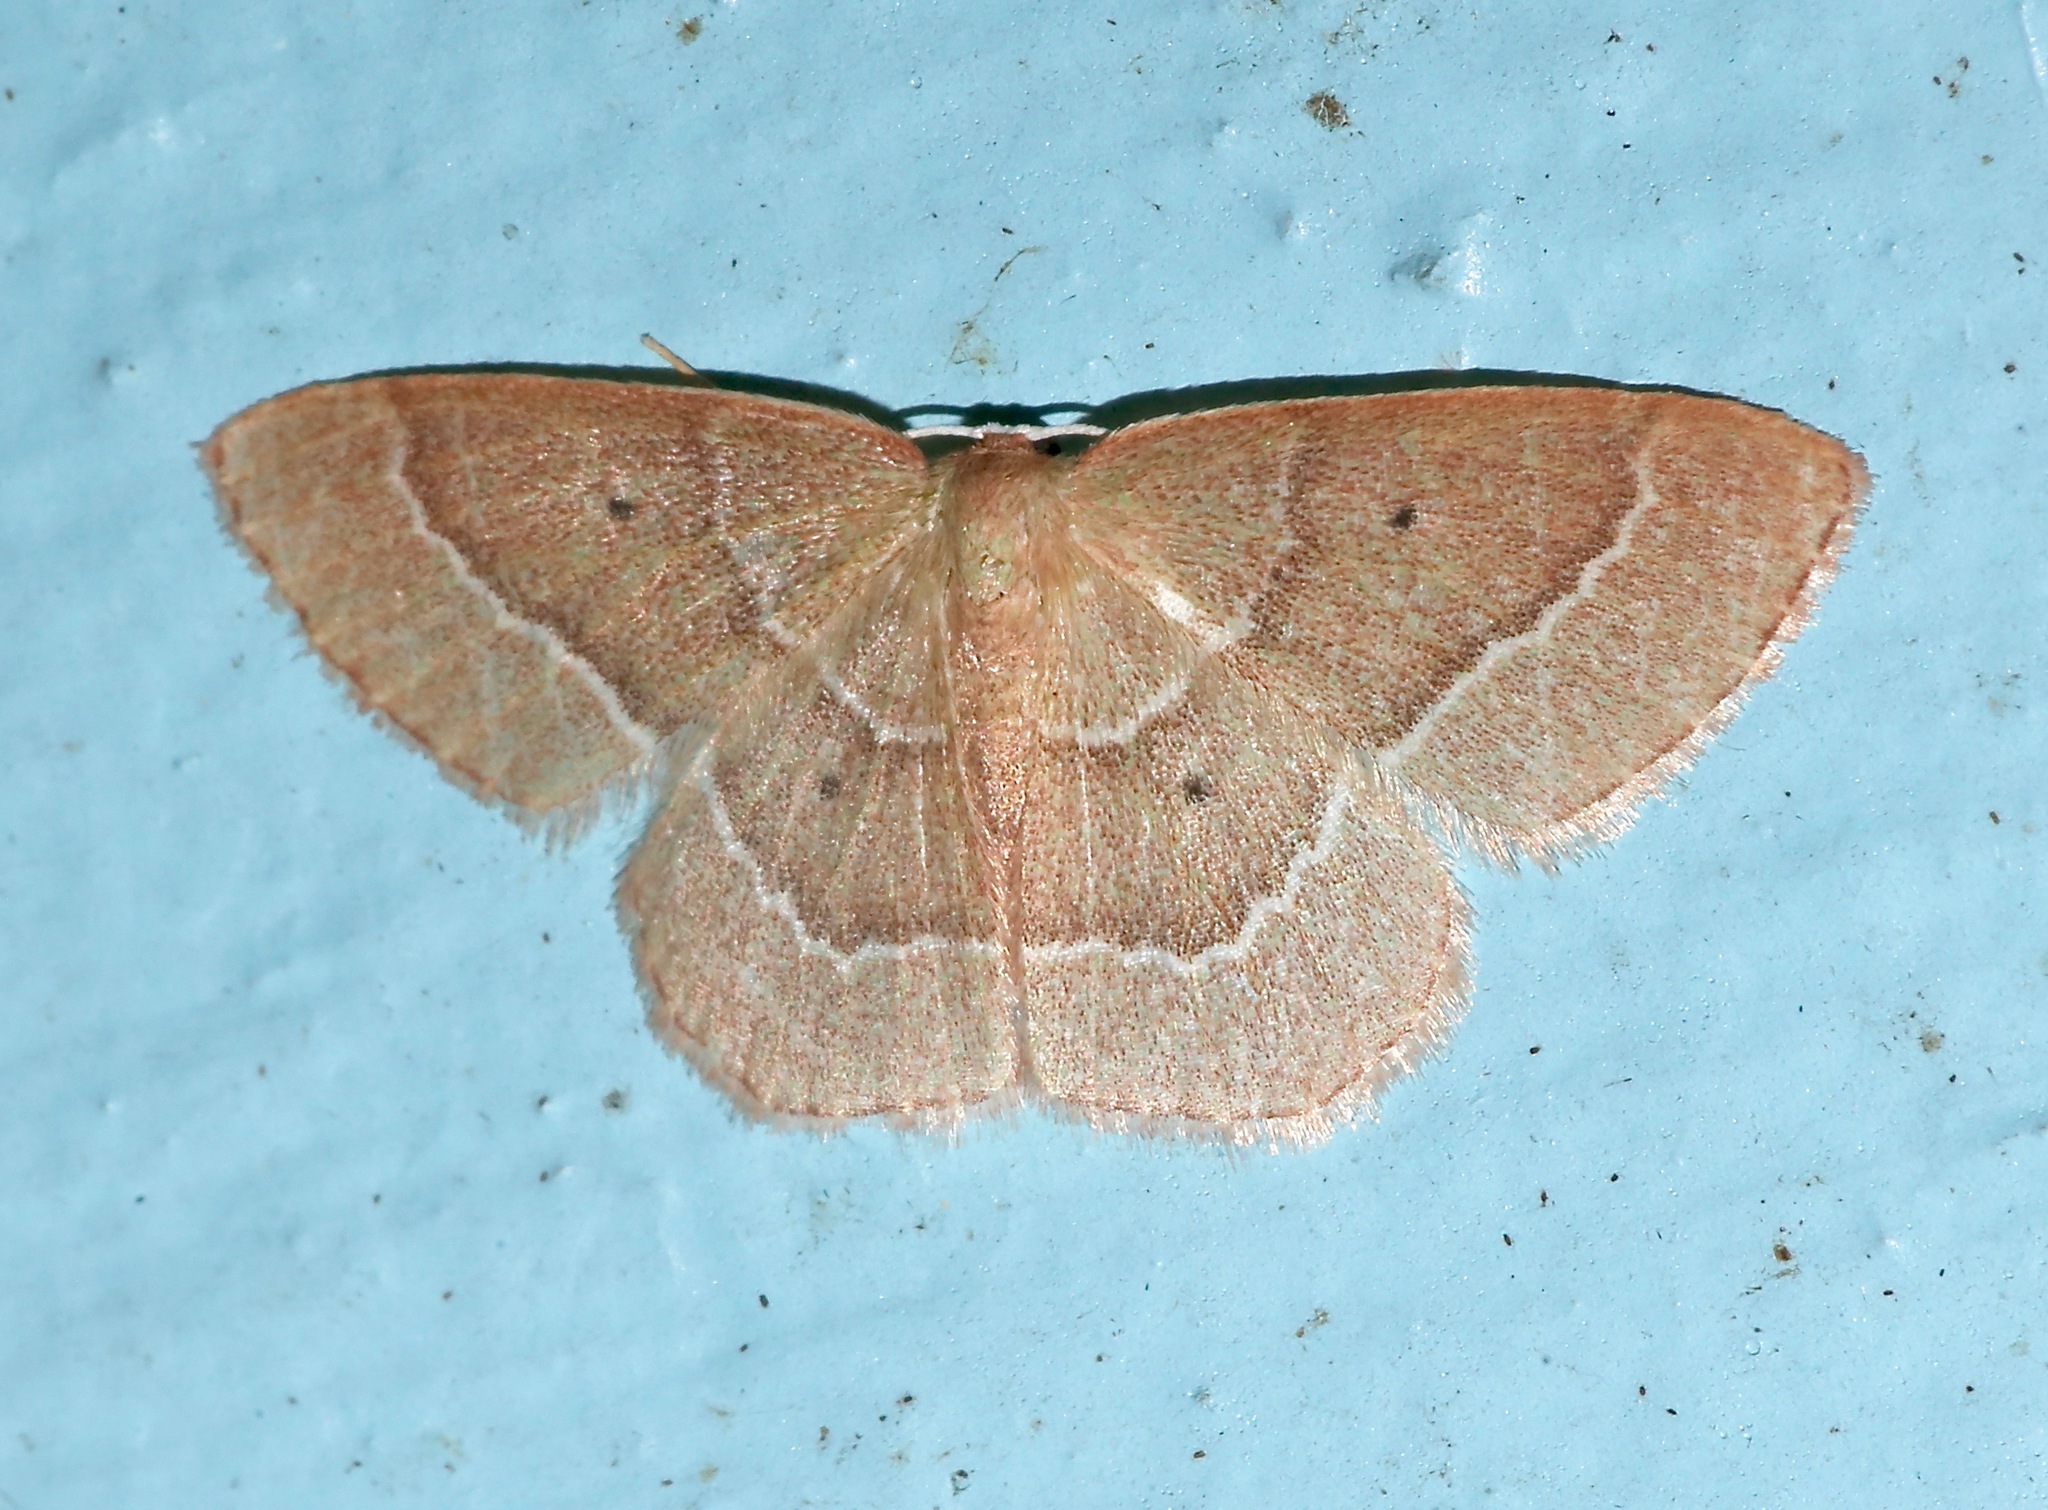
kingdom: Animalia
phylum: Arthropoda
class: Insecta
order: Lepidoptera
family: Geometridae
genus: Nemoria
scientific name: Nemoria elfa
